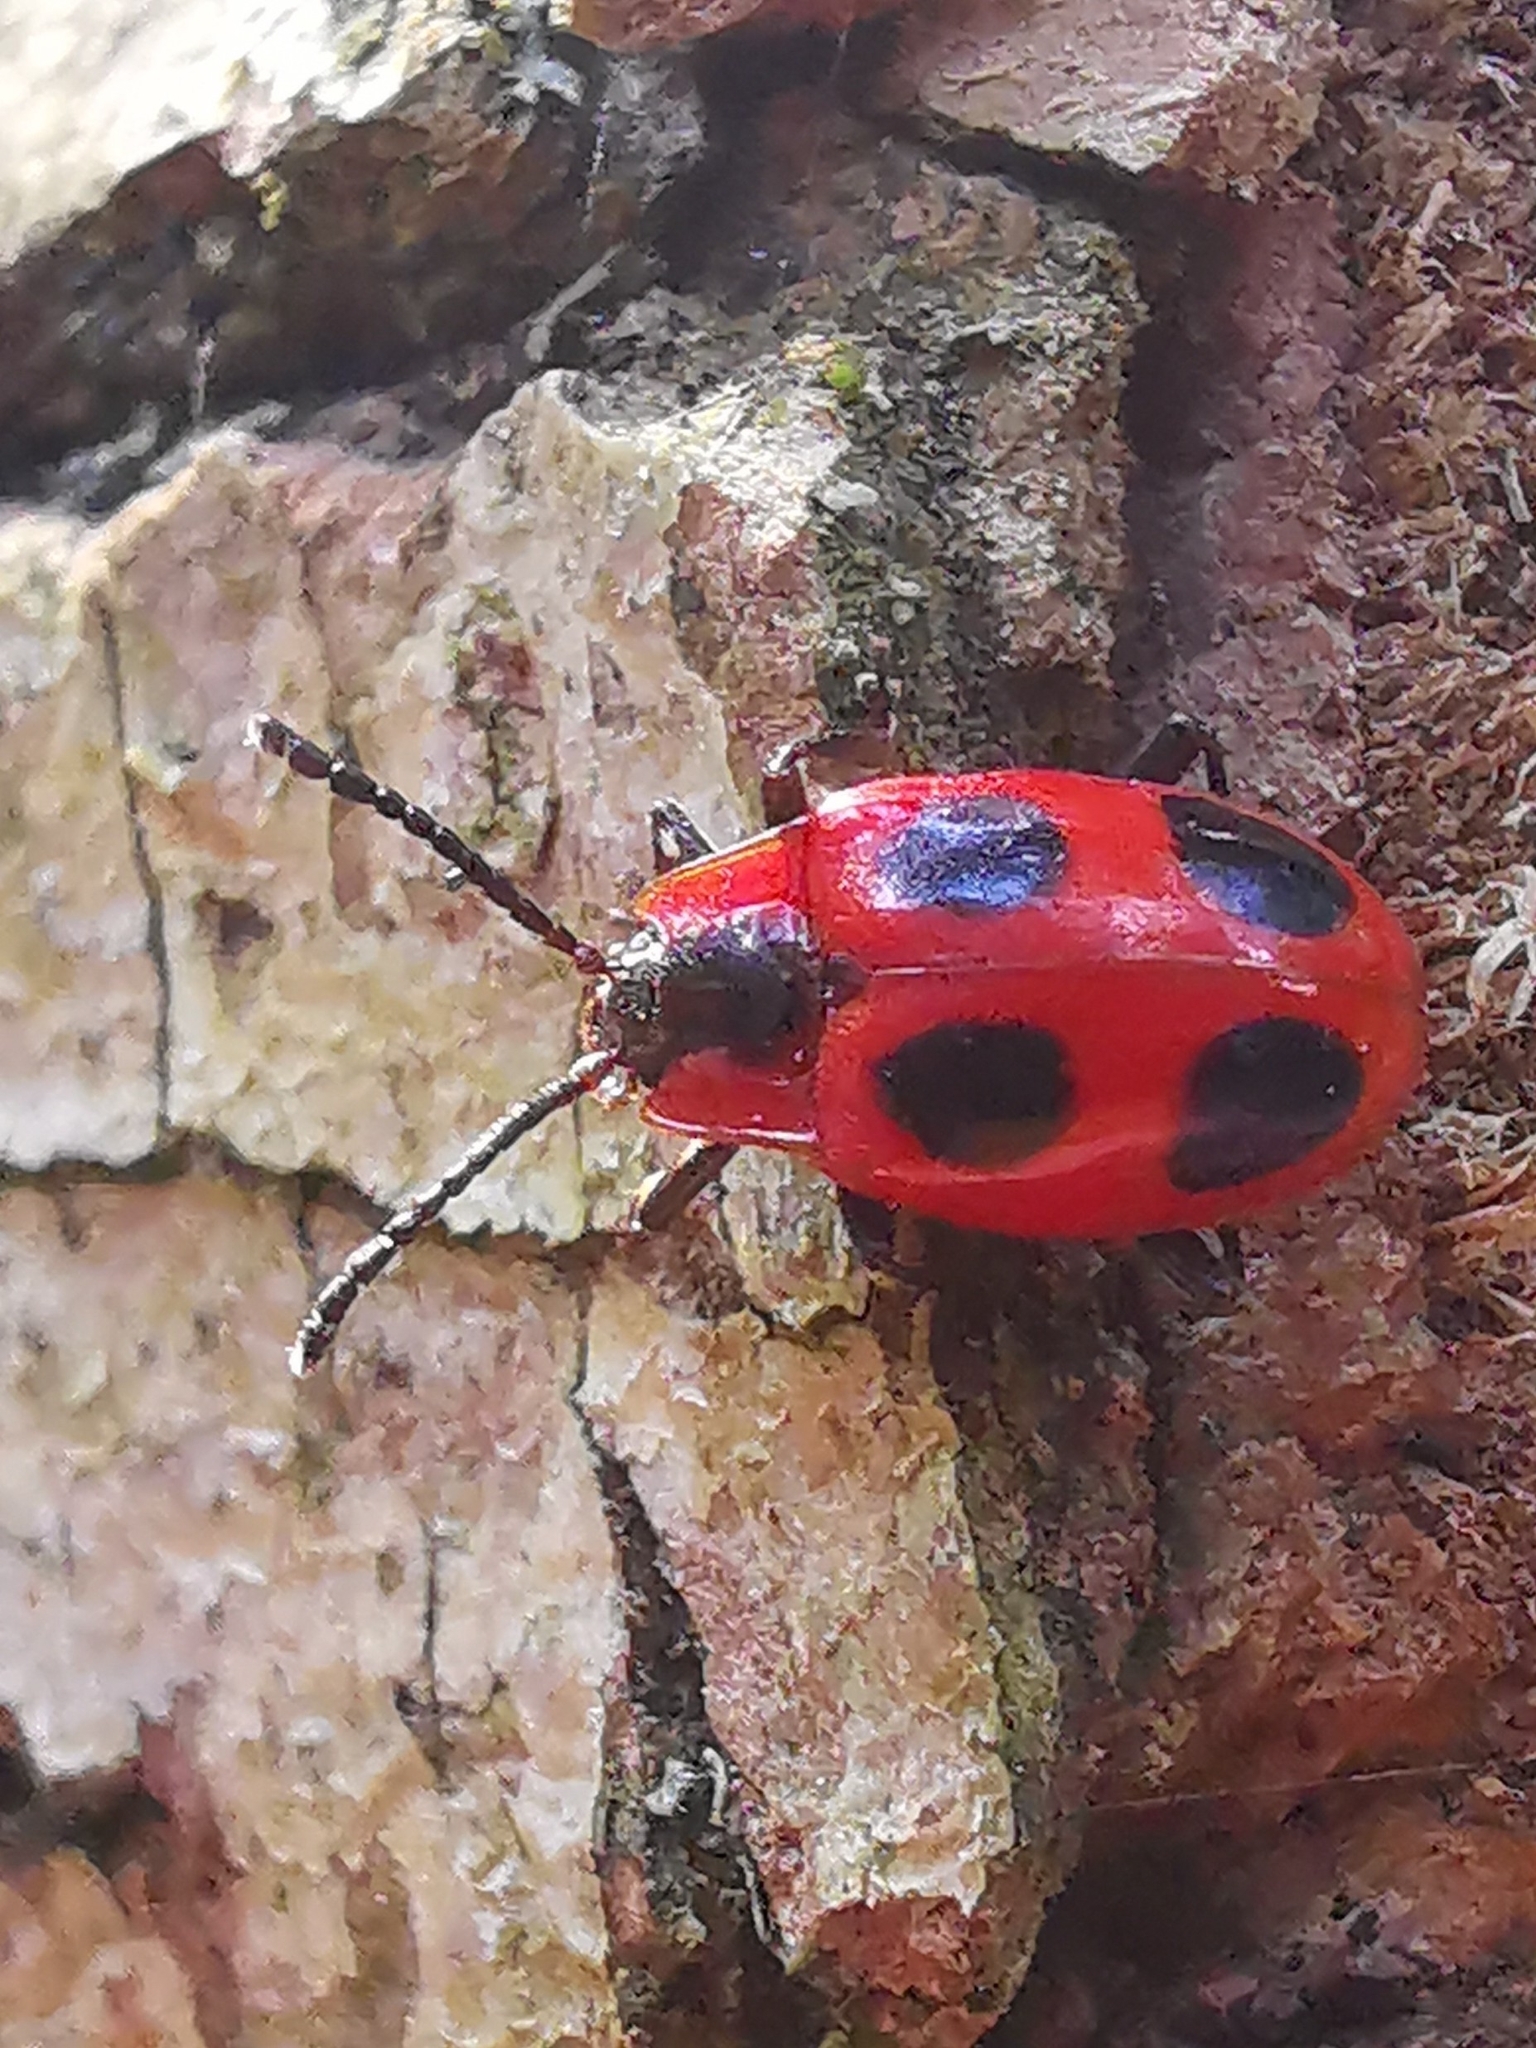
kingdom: Animalia
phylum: Arthropoda
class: Insecta
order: Coleoptera
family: Endomychidae
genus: Endomychus
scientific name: Endomychus coccineus
